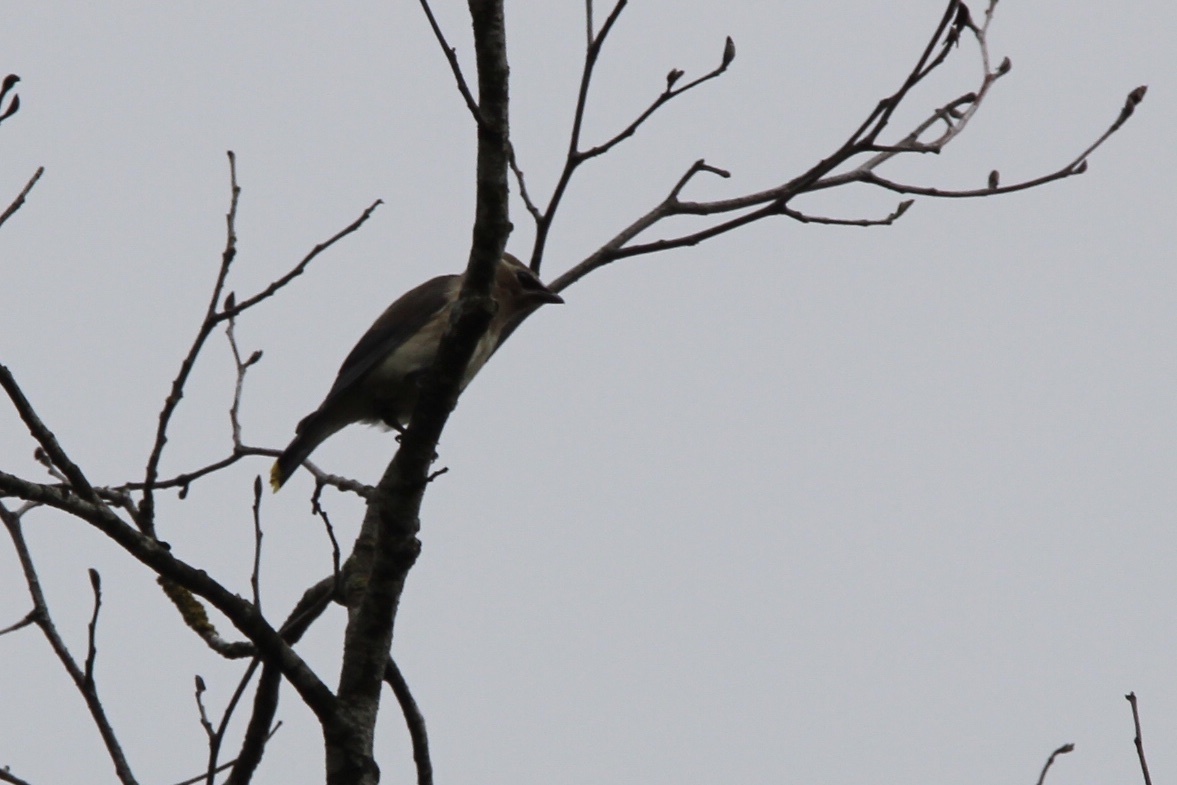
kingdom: Animalia
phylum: Chordata
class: Aves
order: Passeriformes
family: Bombycillidae
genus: Bombycilla
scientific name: Bombycilla cedrorum
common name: Cedar waxwing
